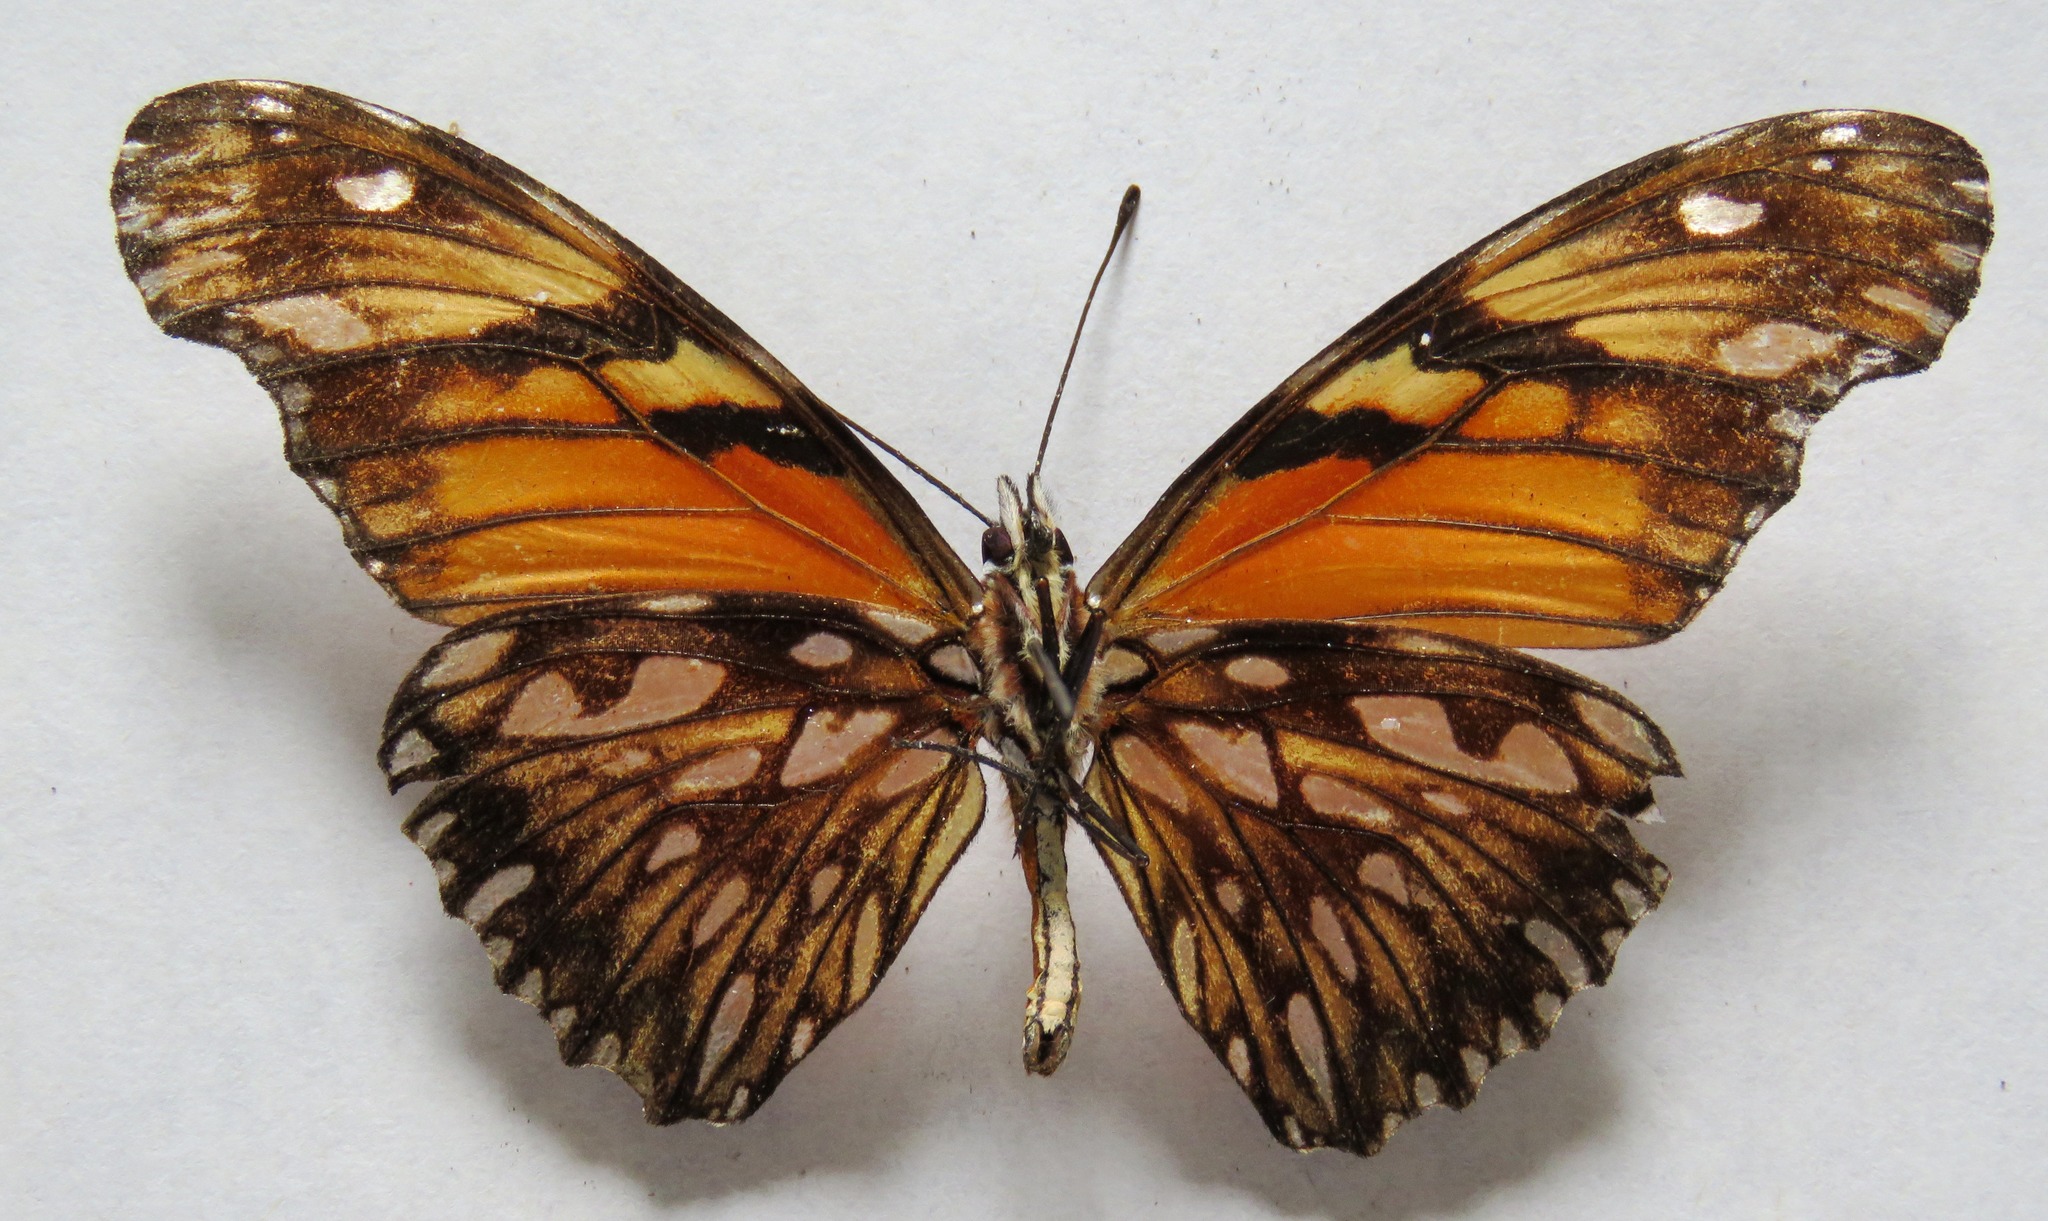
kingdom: Animalia
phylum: Arthropoda
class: Insecta
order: Lepidoptera
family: Nymphalidae
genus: Dione
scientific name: Dione juno
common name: Juno silverspot
